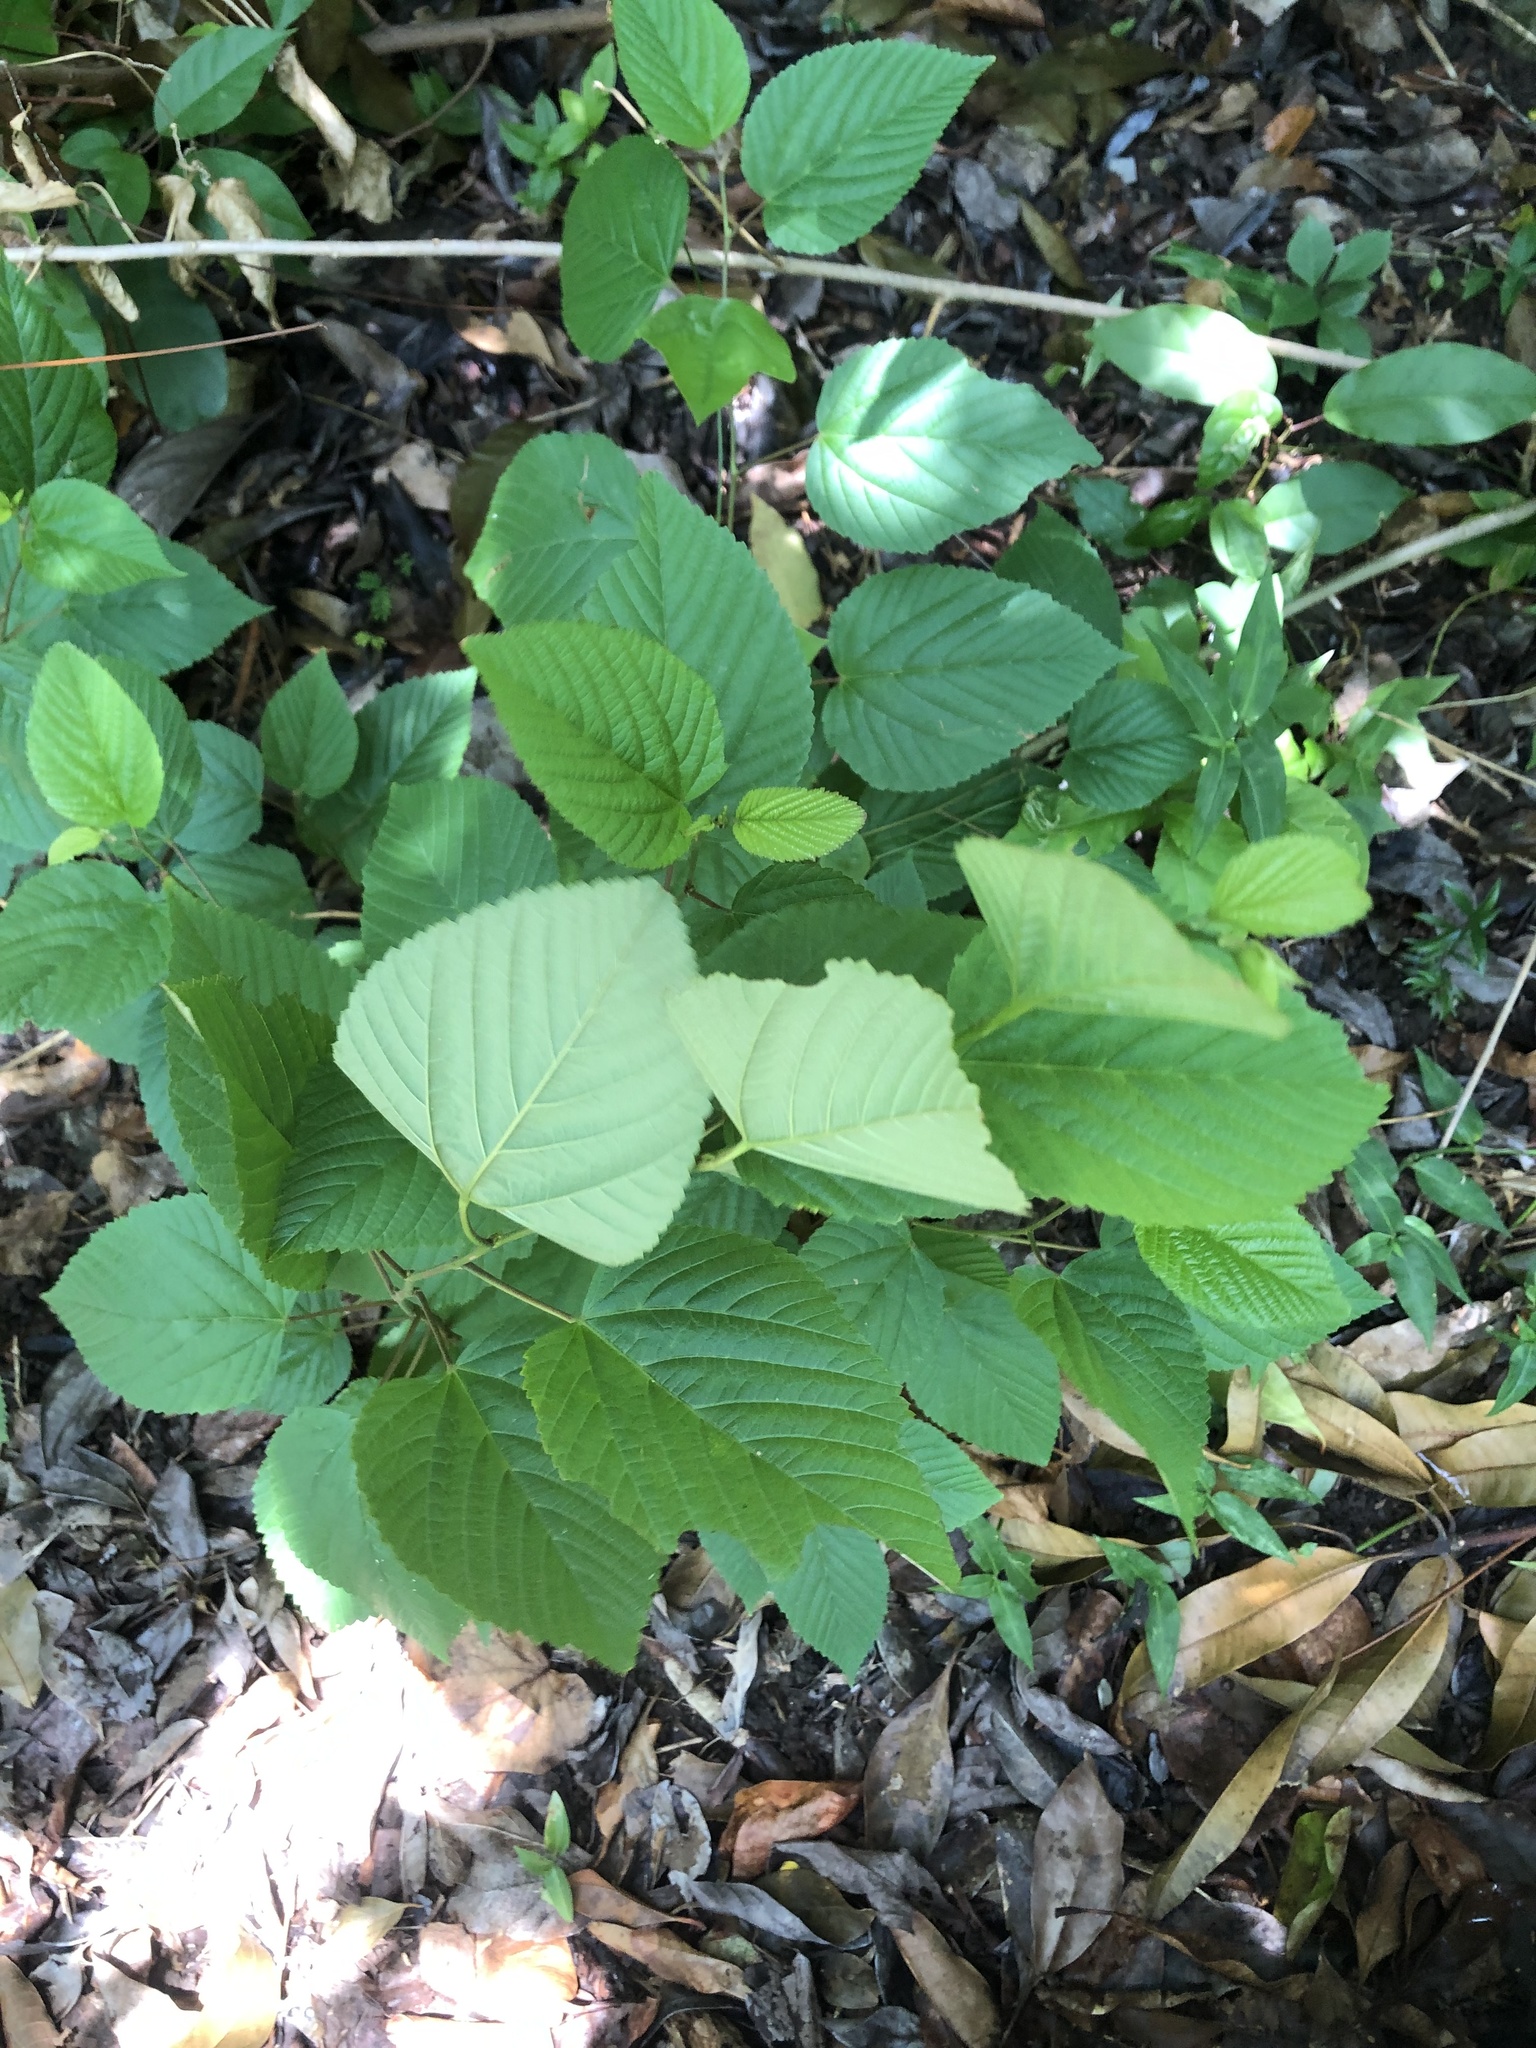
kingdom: Plantae
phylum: Tracheophyta
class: Magnoliopsida
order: Malvales
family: Malvaceae
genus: Melochia
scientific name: Melochia nodiflora
